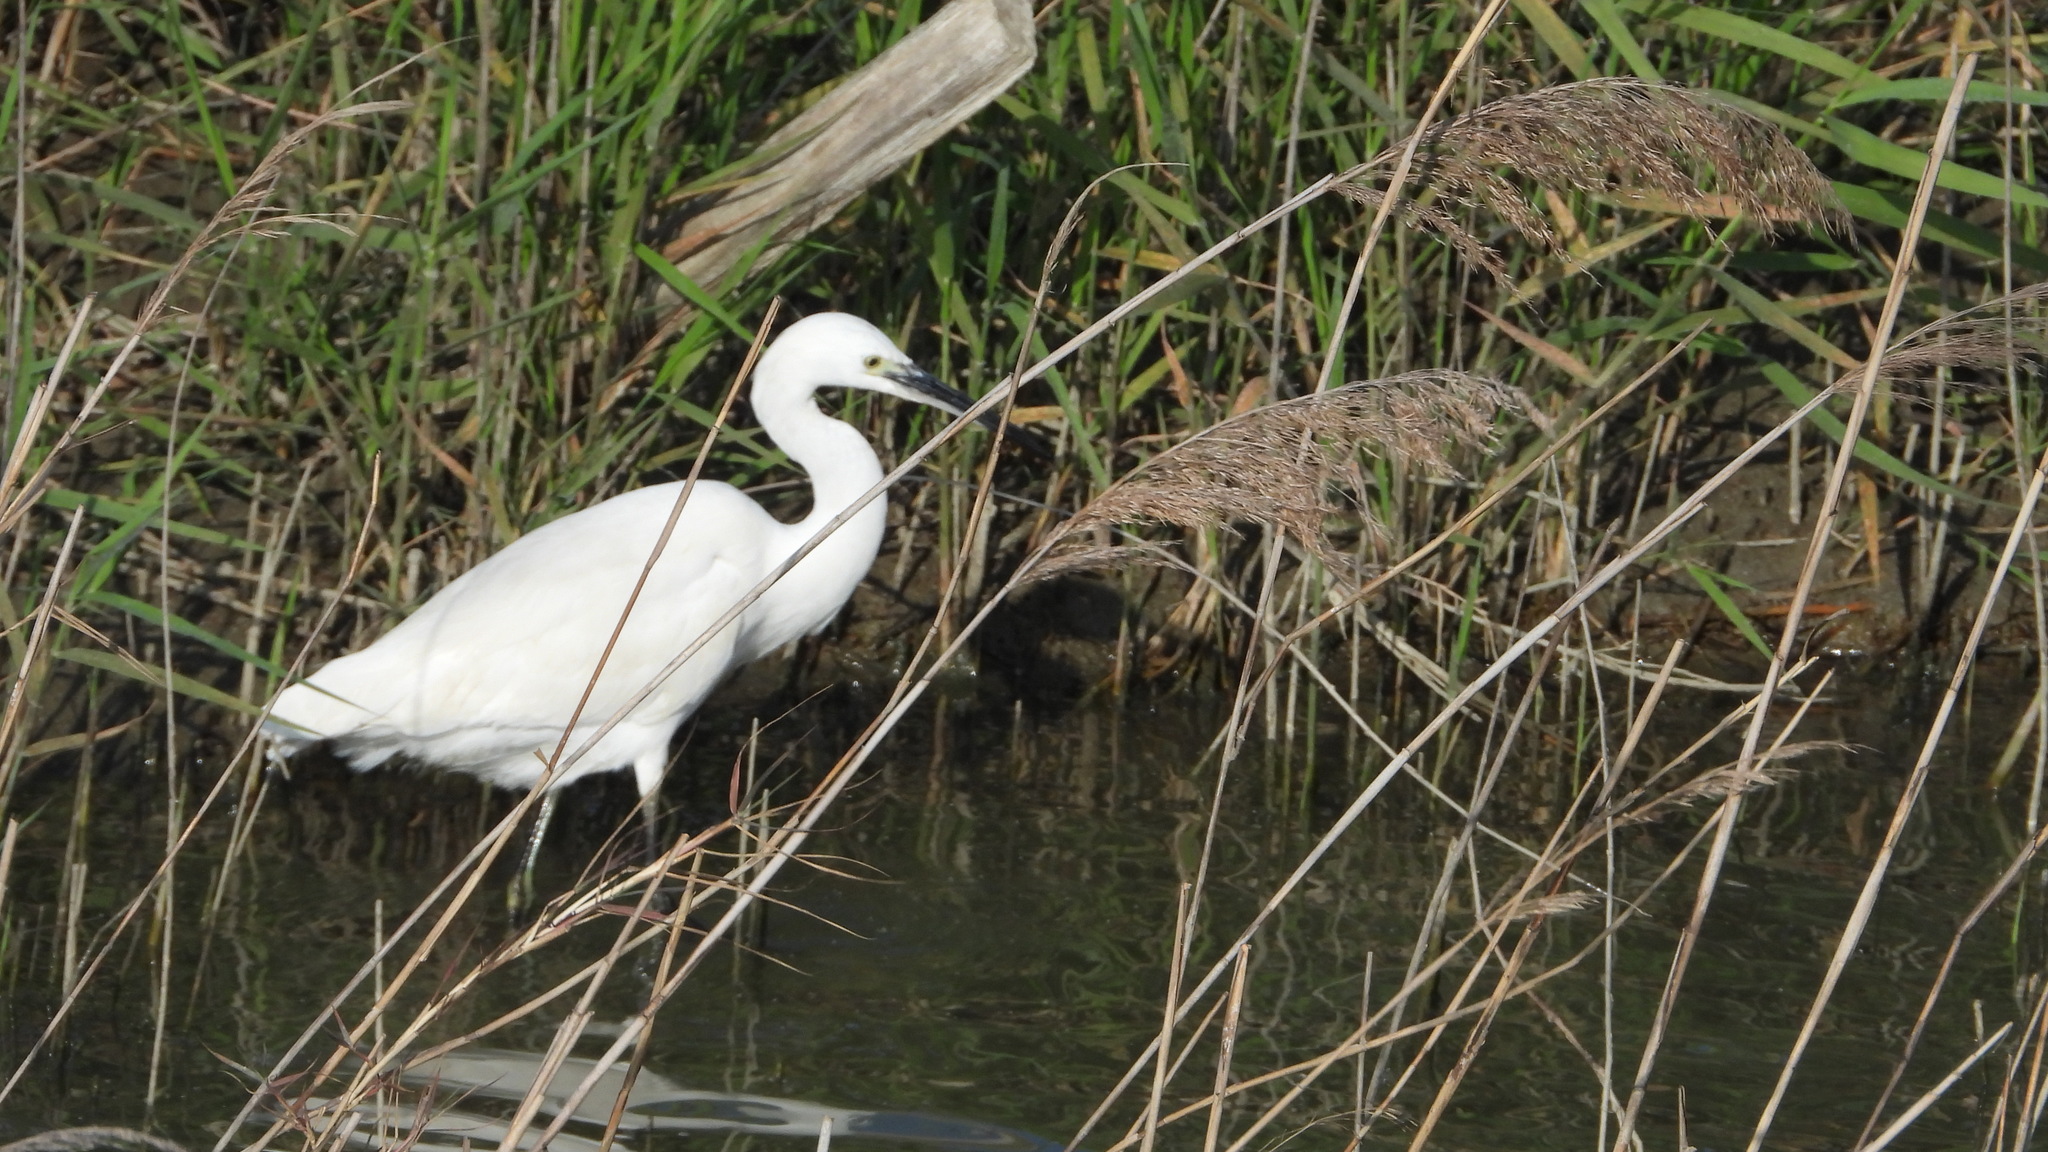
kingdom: Animalia
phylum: Chordata
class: Aves
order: Pelecaniformes
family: Ardeidae
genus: Egretta
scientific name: Egretta garzetta
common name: Little egret
